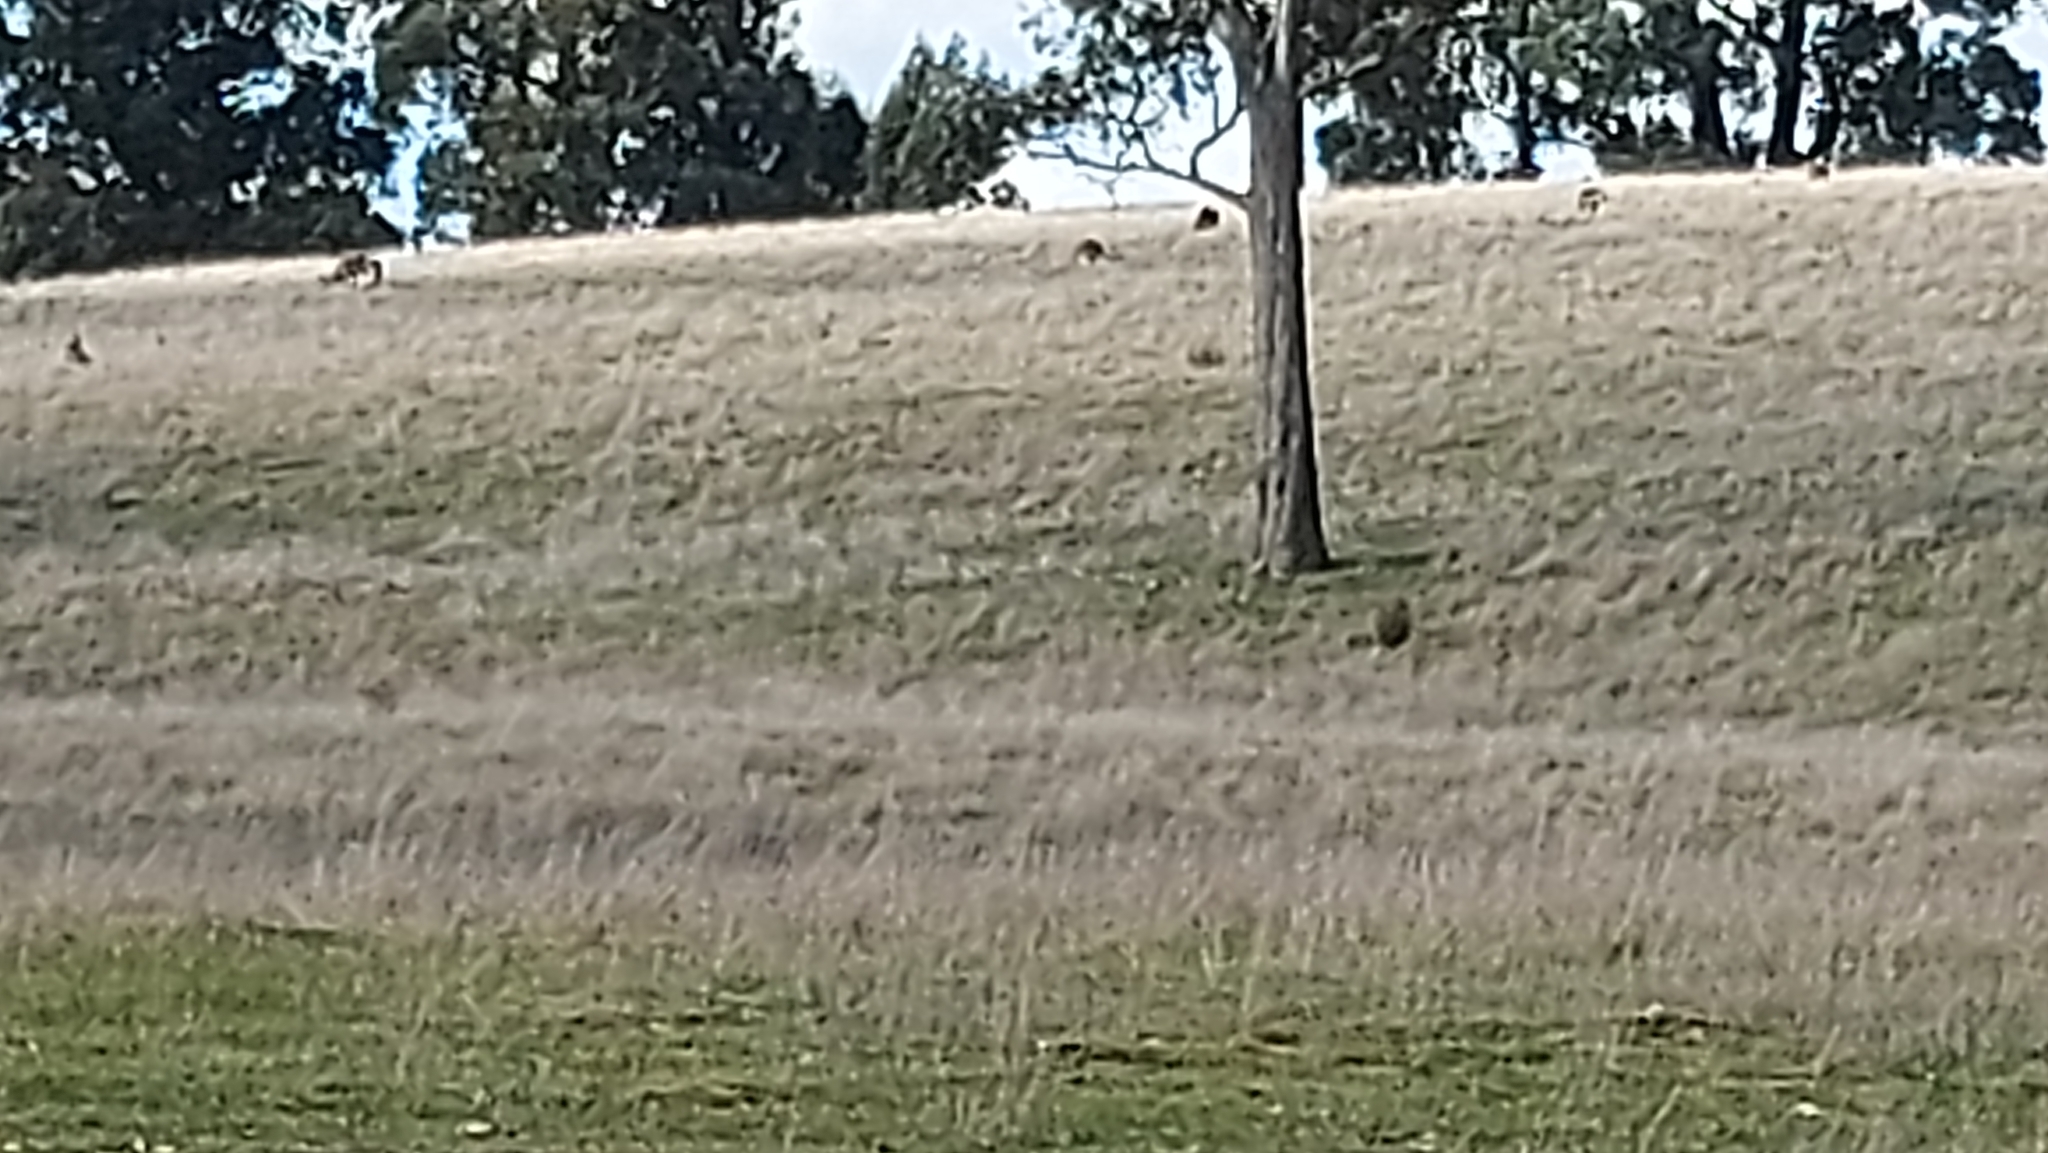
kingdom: Animalia
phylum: Chordata
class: Mammalia
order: Diprotodontia
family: Macropodidae
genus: Macropus
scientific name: Macropus giganteus
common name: Eastern grey kangaroo
